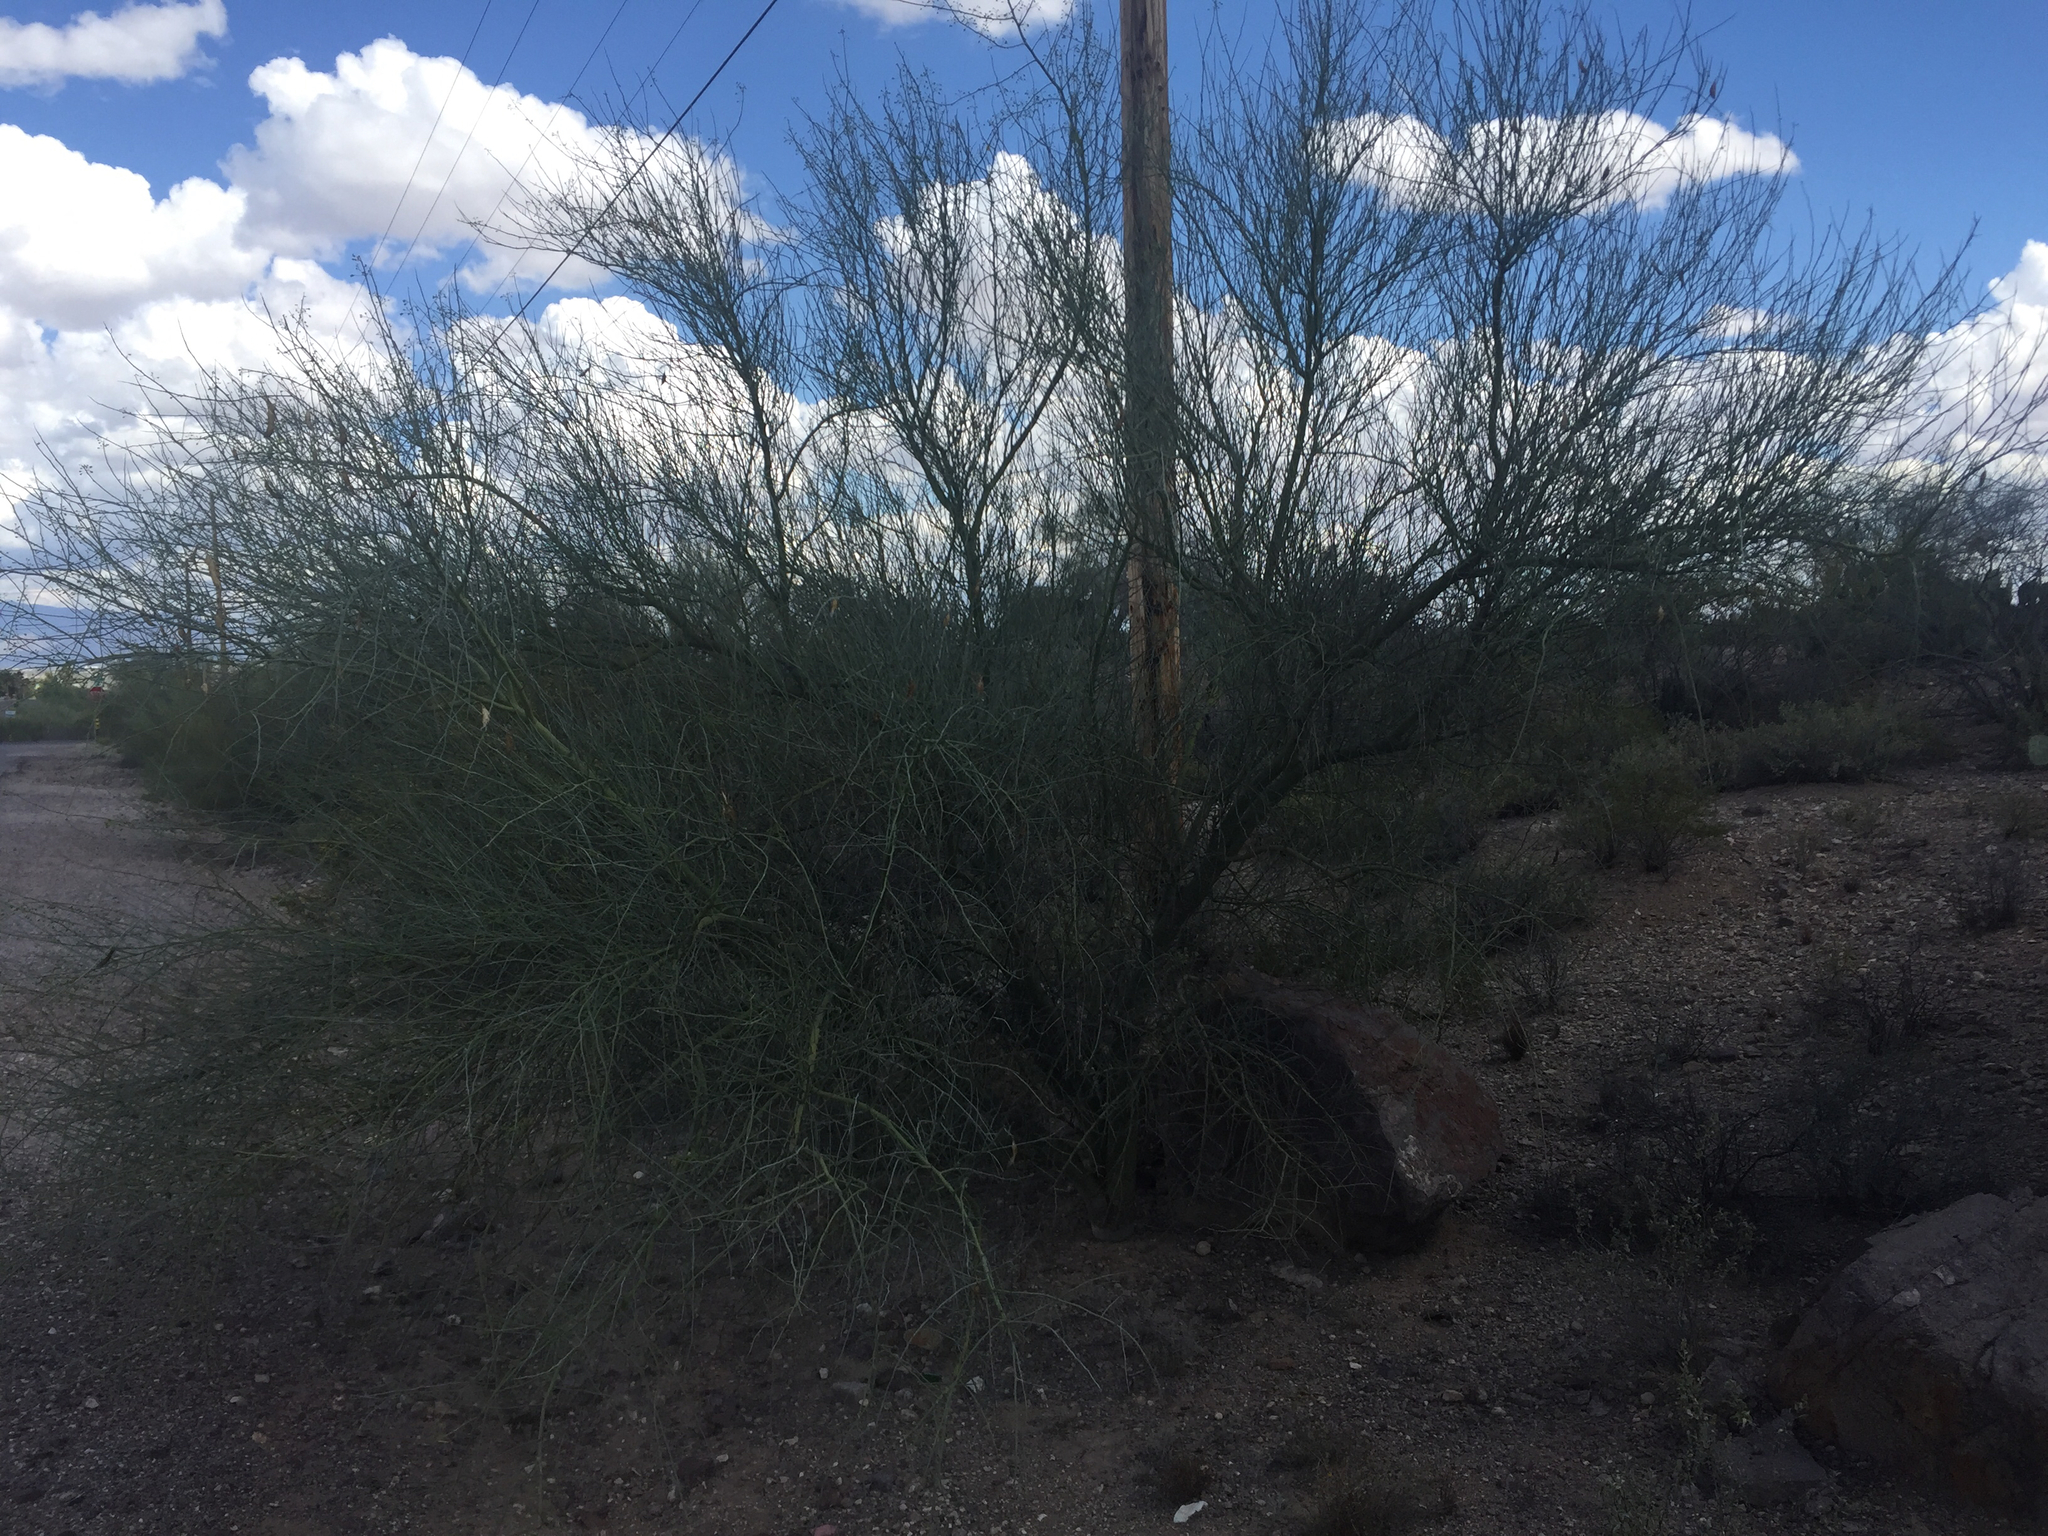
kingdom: Plantae
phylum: Tracheophyta
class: Magnoliopsida
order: Fabales
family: Fabaceae
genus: Parkinsonia
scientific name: Parkinsonia florida
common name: Blue paloverde
